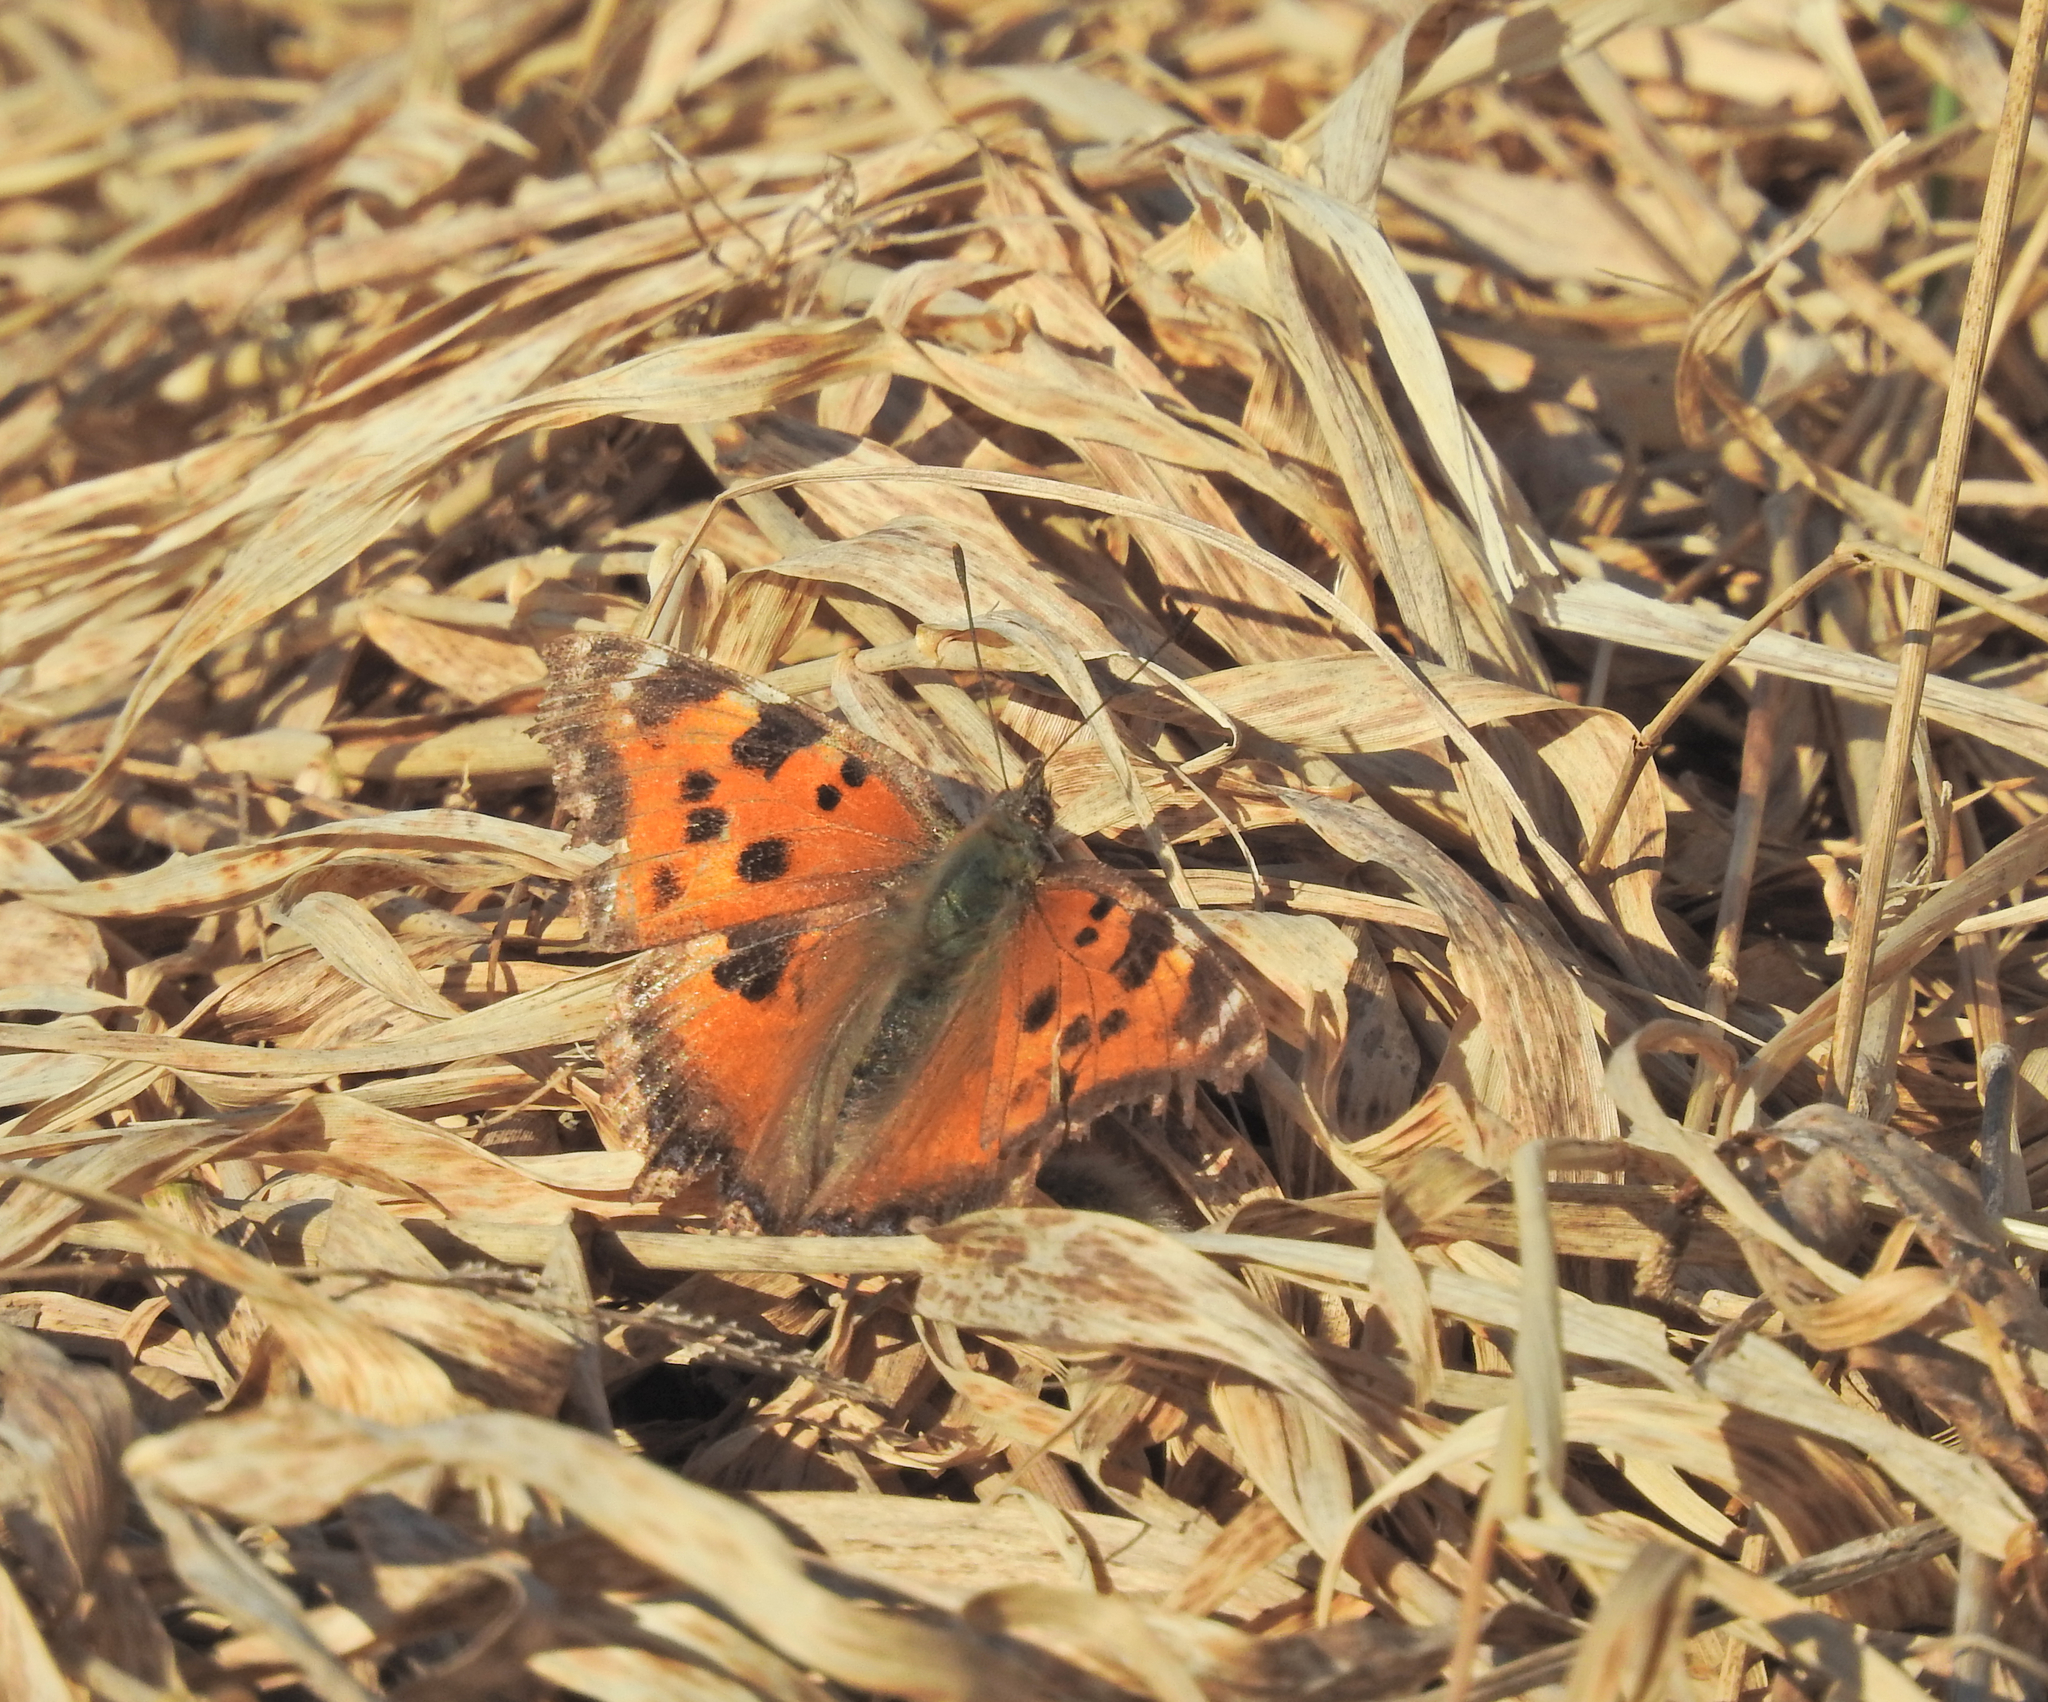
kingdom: Animalia
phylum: Arthropoda
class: Insecta
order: Lepidoptera
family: Nymphalidae
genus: Nymphalis
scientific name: Nymphalis xanthomelas
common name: Scarce tortoiseshell
